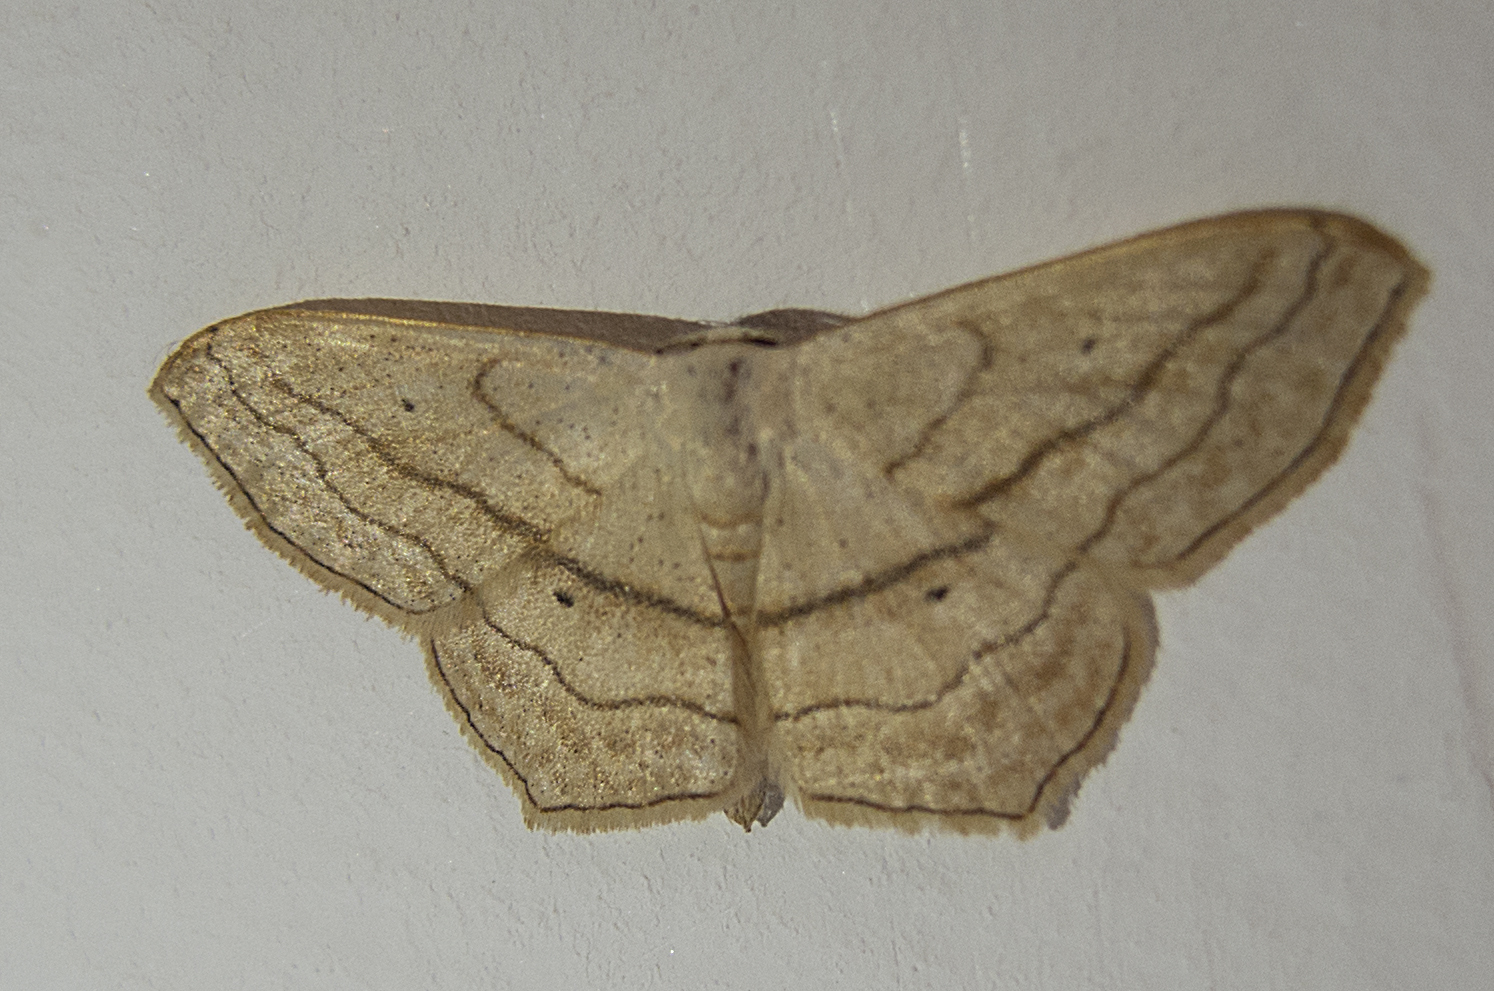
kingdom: Animalia
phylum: Arthropoda
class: Insecta
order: Lepidoptera
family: Geometridae
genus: Scopula
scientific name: Scopula imitaria
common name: Small blood-vein
